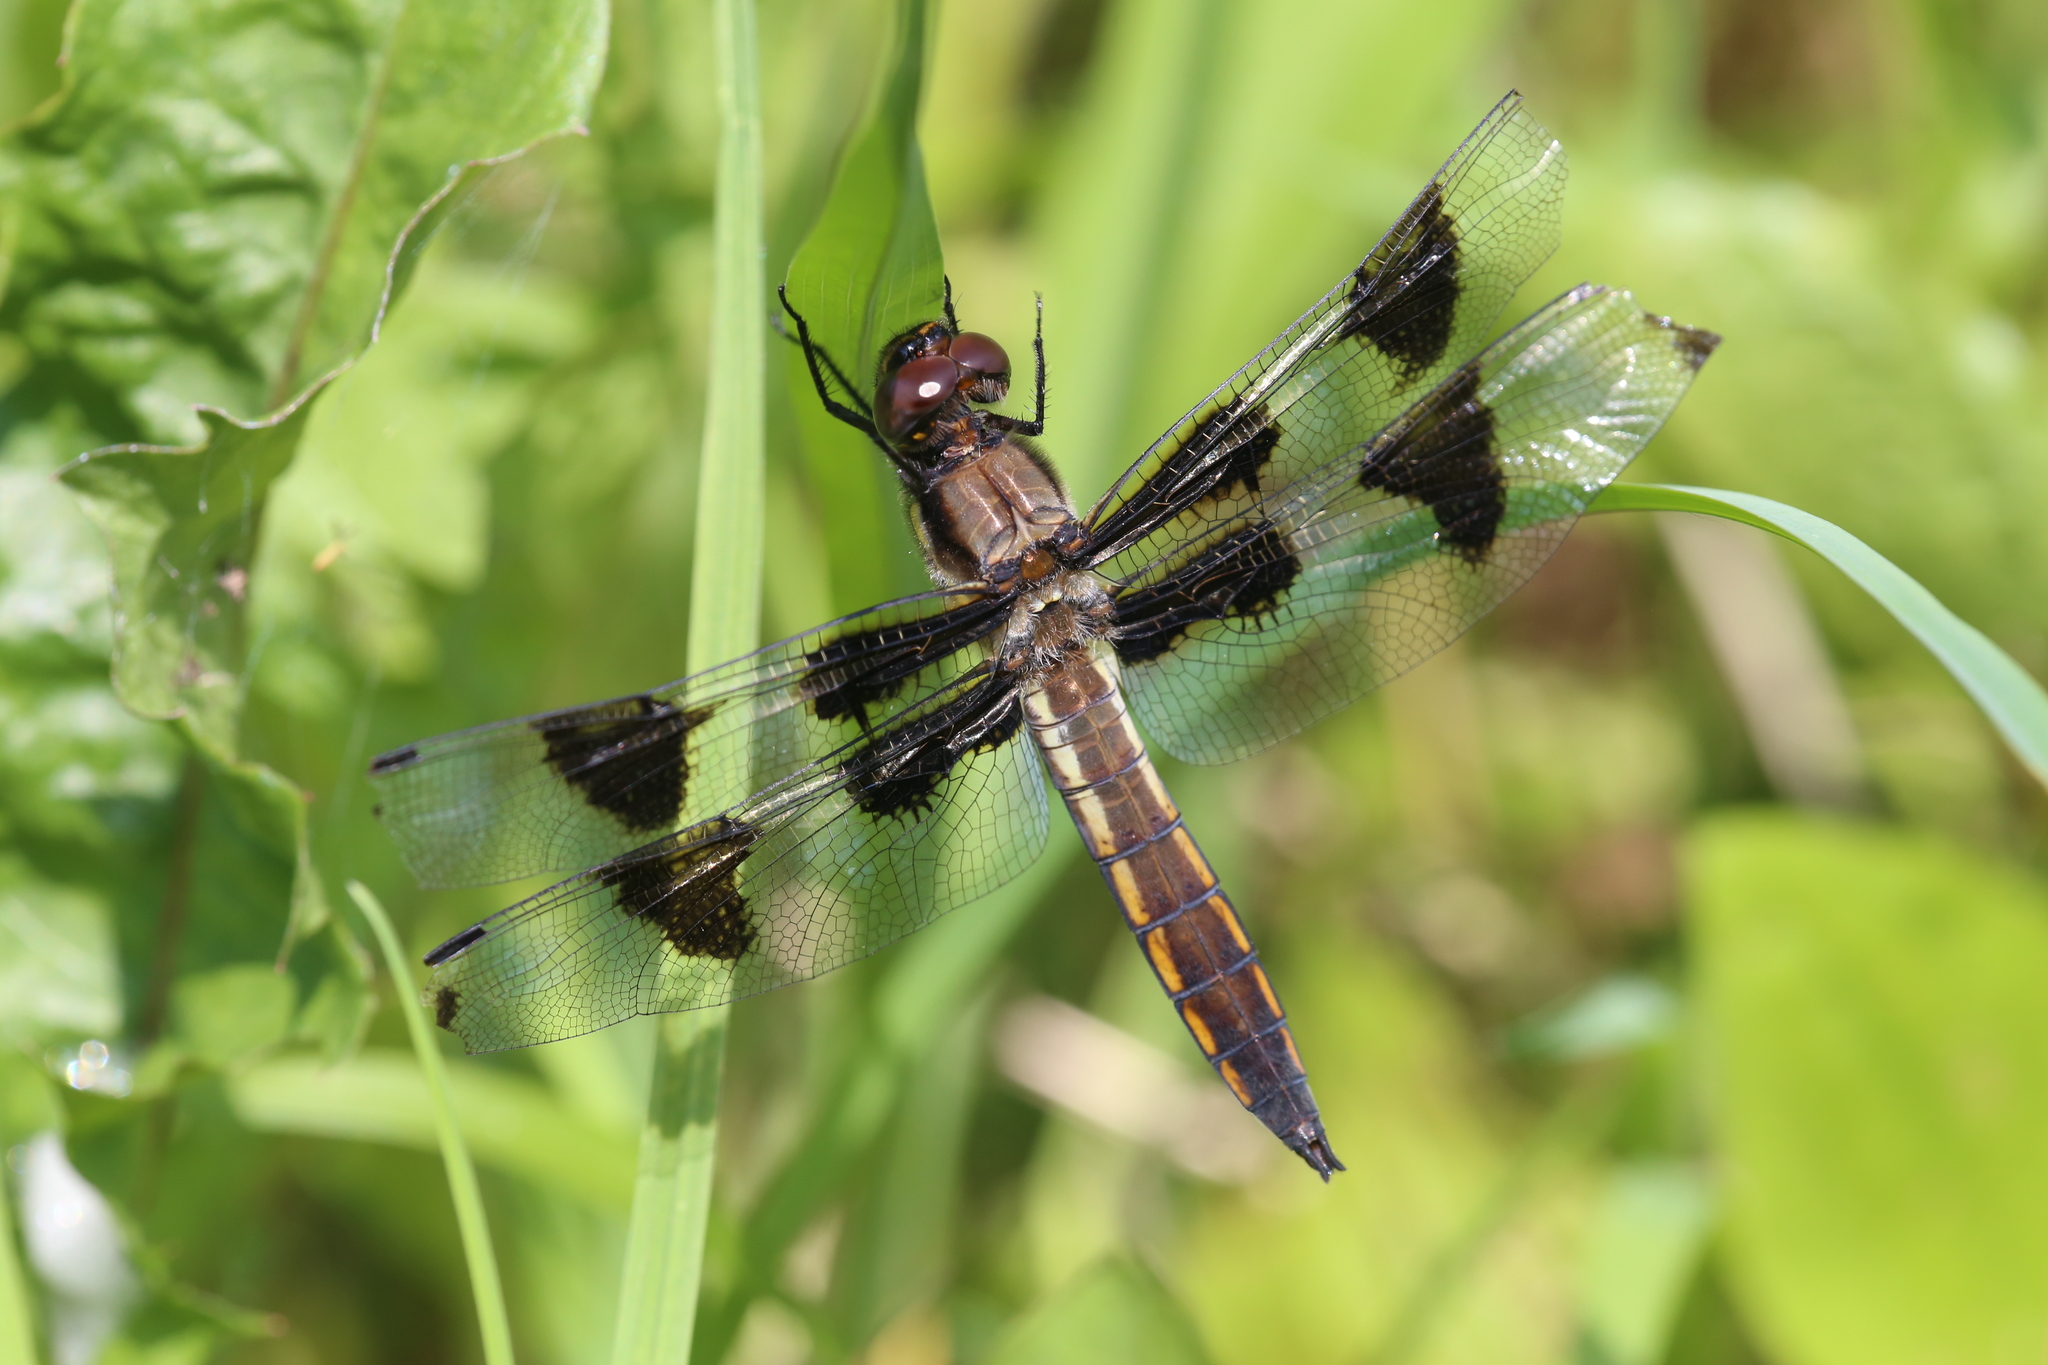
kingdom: Animalia
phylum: Arthropoda
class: Insecta
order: Odonata
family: Libellulidae
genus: Libellula
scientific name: Libellula pulchella
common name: Twelve-spotted skimmer
